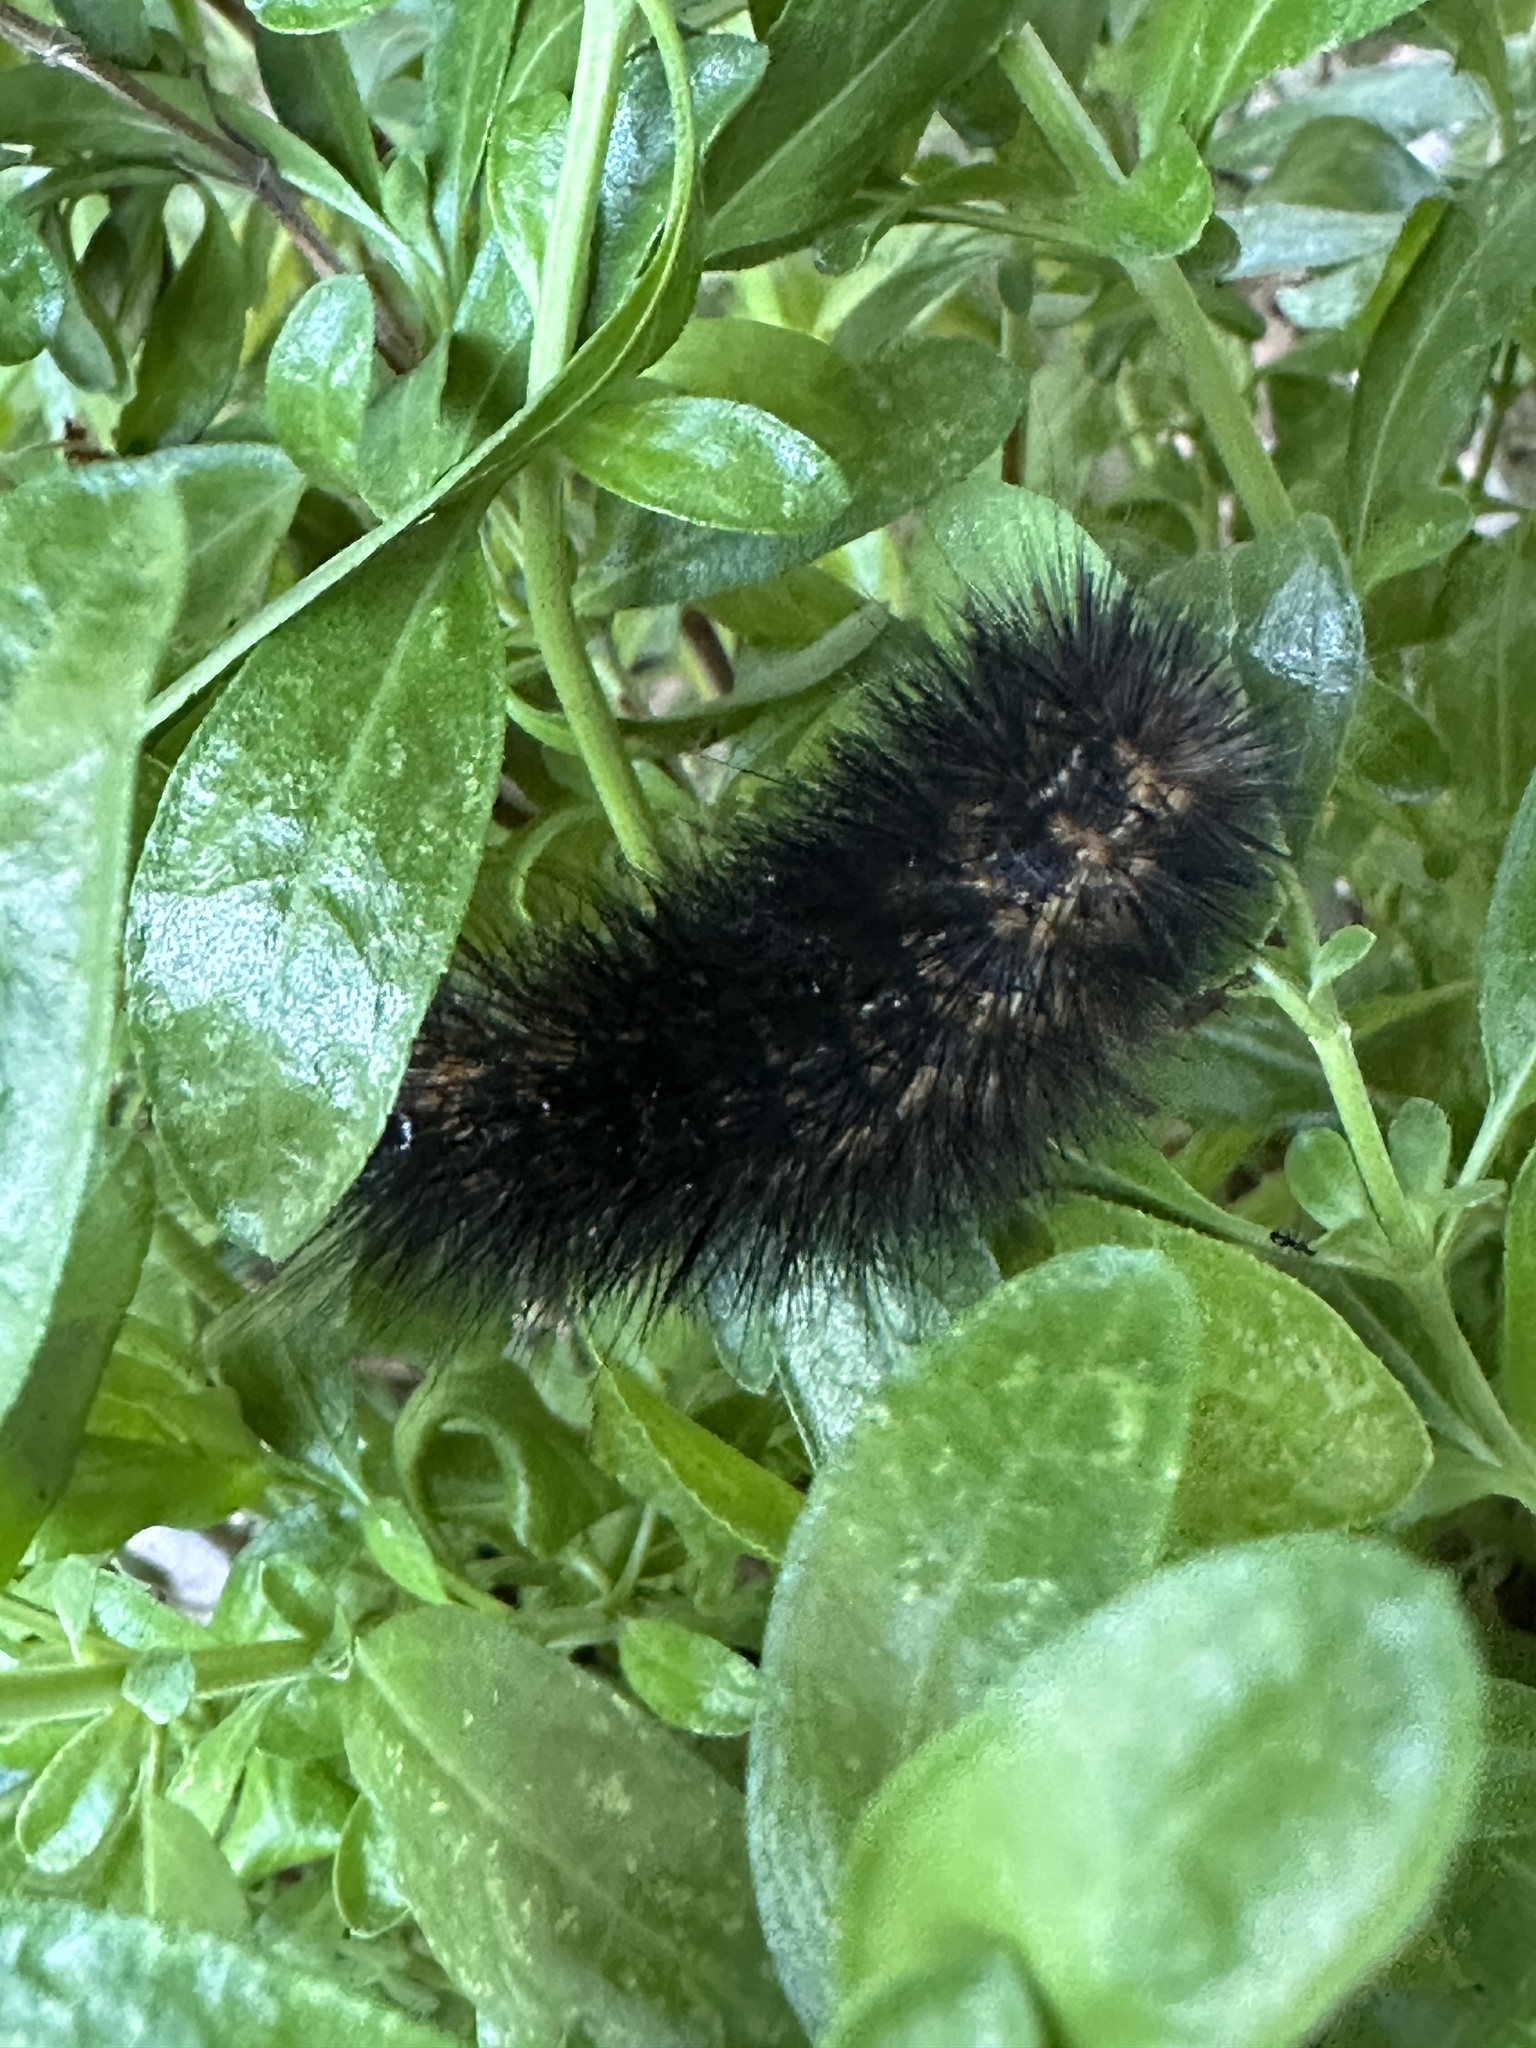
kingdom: Animalia
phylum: Arthropoda
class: Insecta
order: Lepidoptera
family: Erebidae
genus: Estigmene
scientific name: Estigmene acrea
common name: Salt marsh moth
